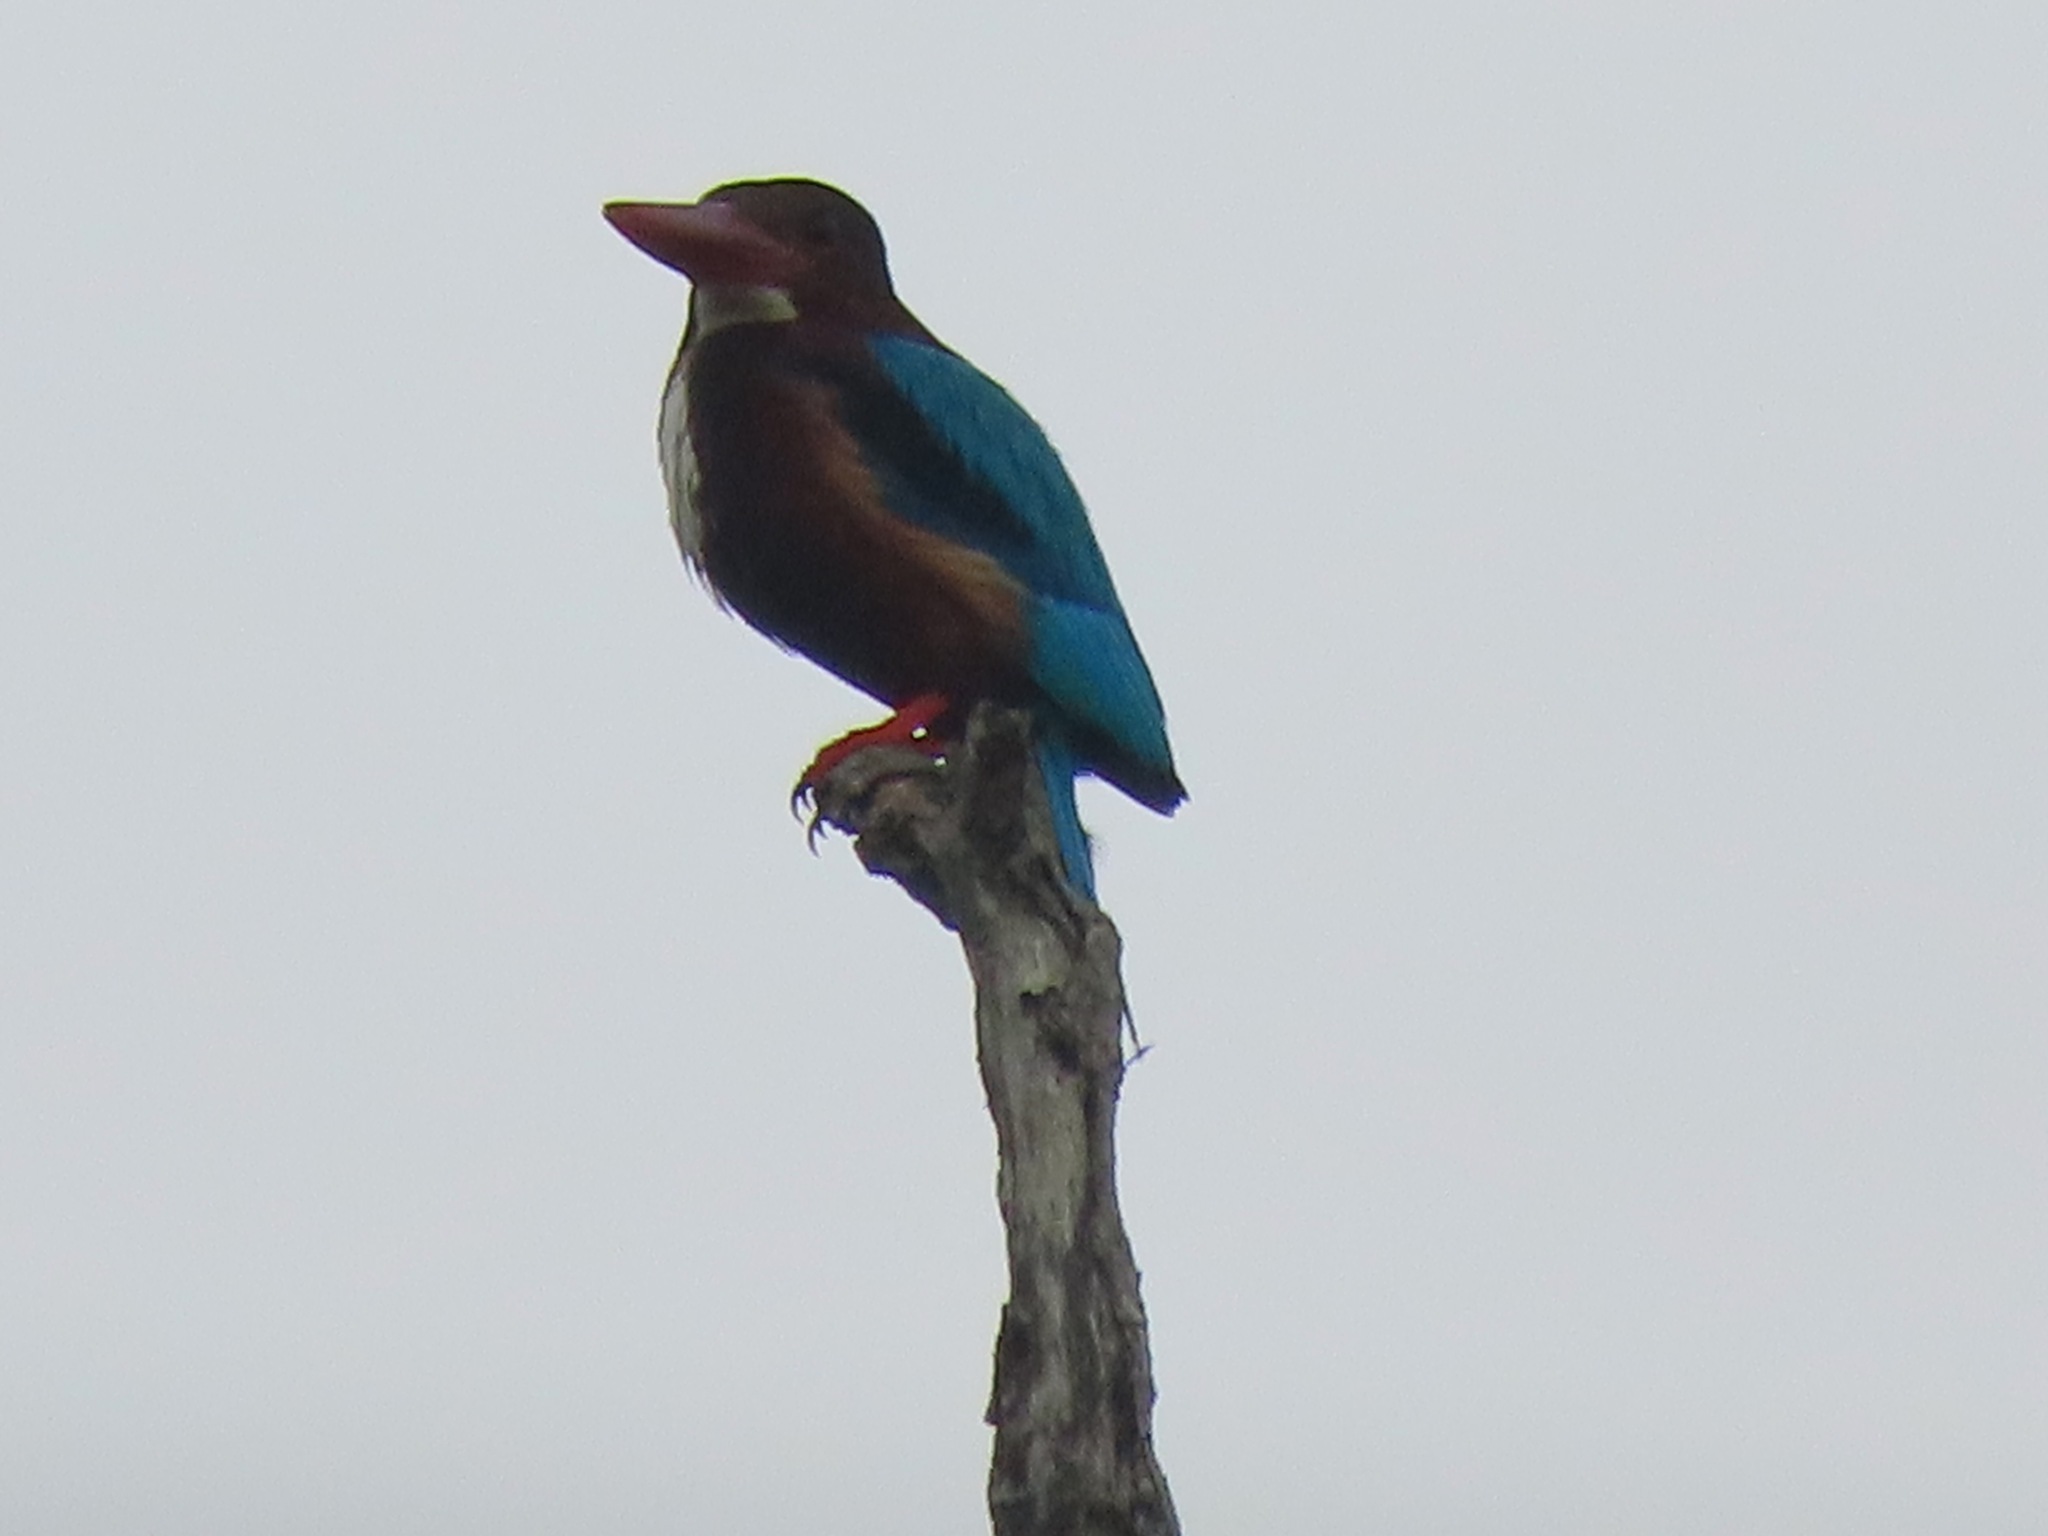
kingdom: Animalia
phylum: Chordata
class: Aves
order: Coraciiformes
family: Alcedinidae
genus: Halcyon
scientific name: Halcyon smyrnensis
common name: White-throated kingfisher
